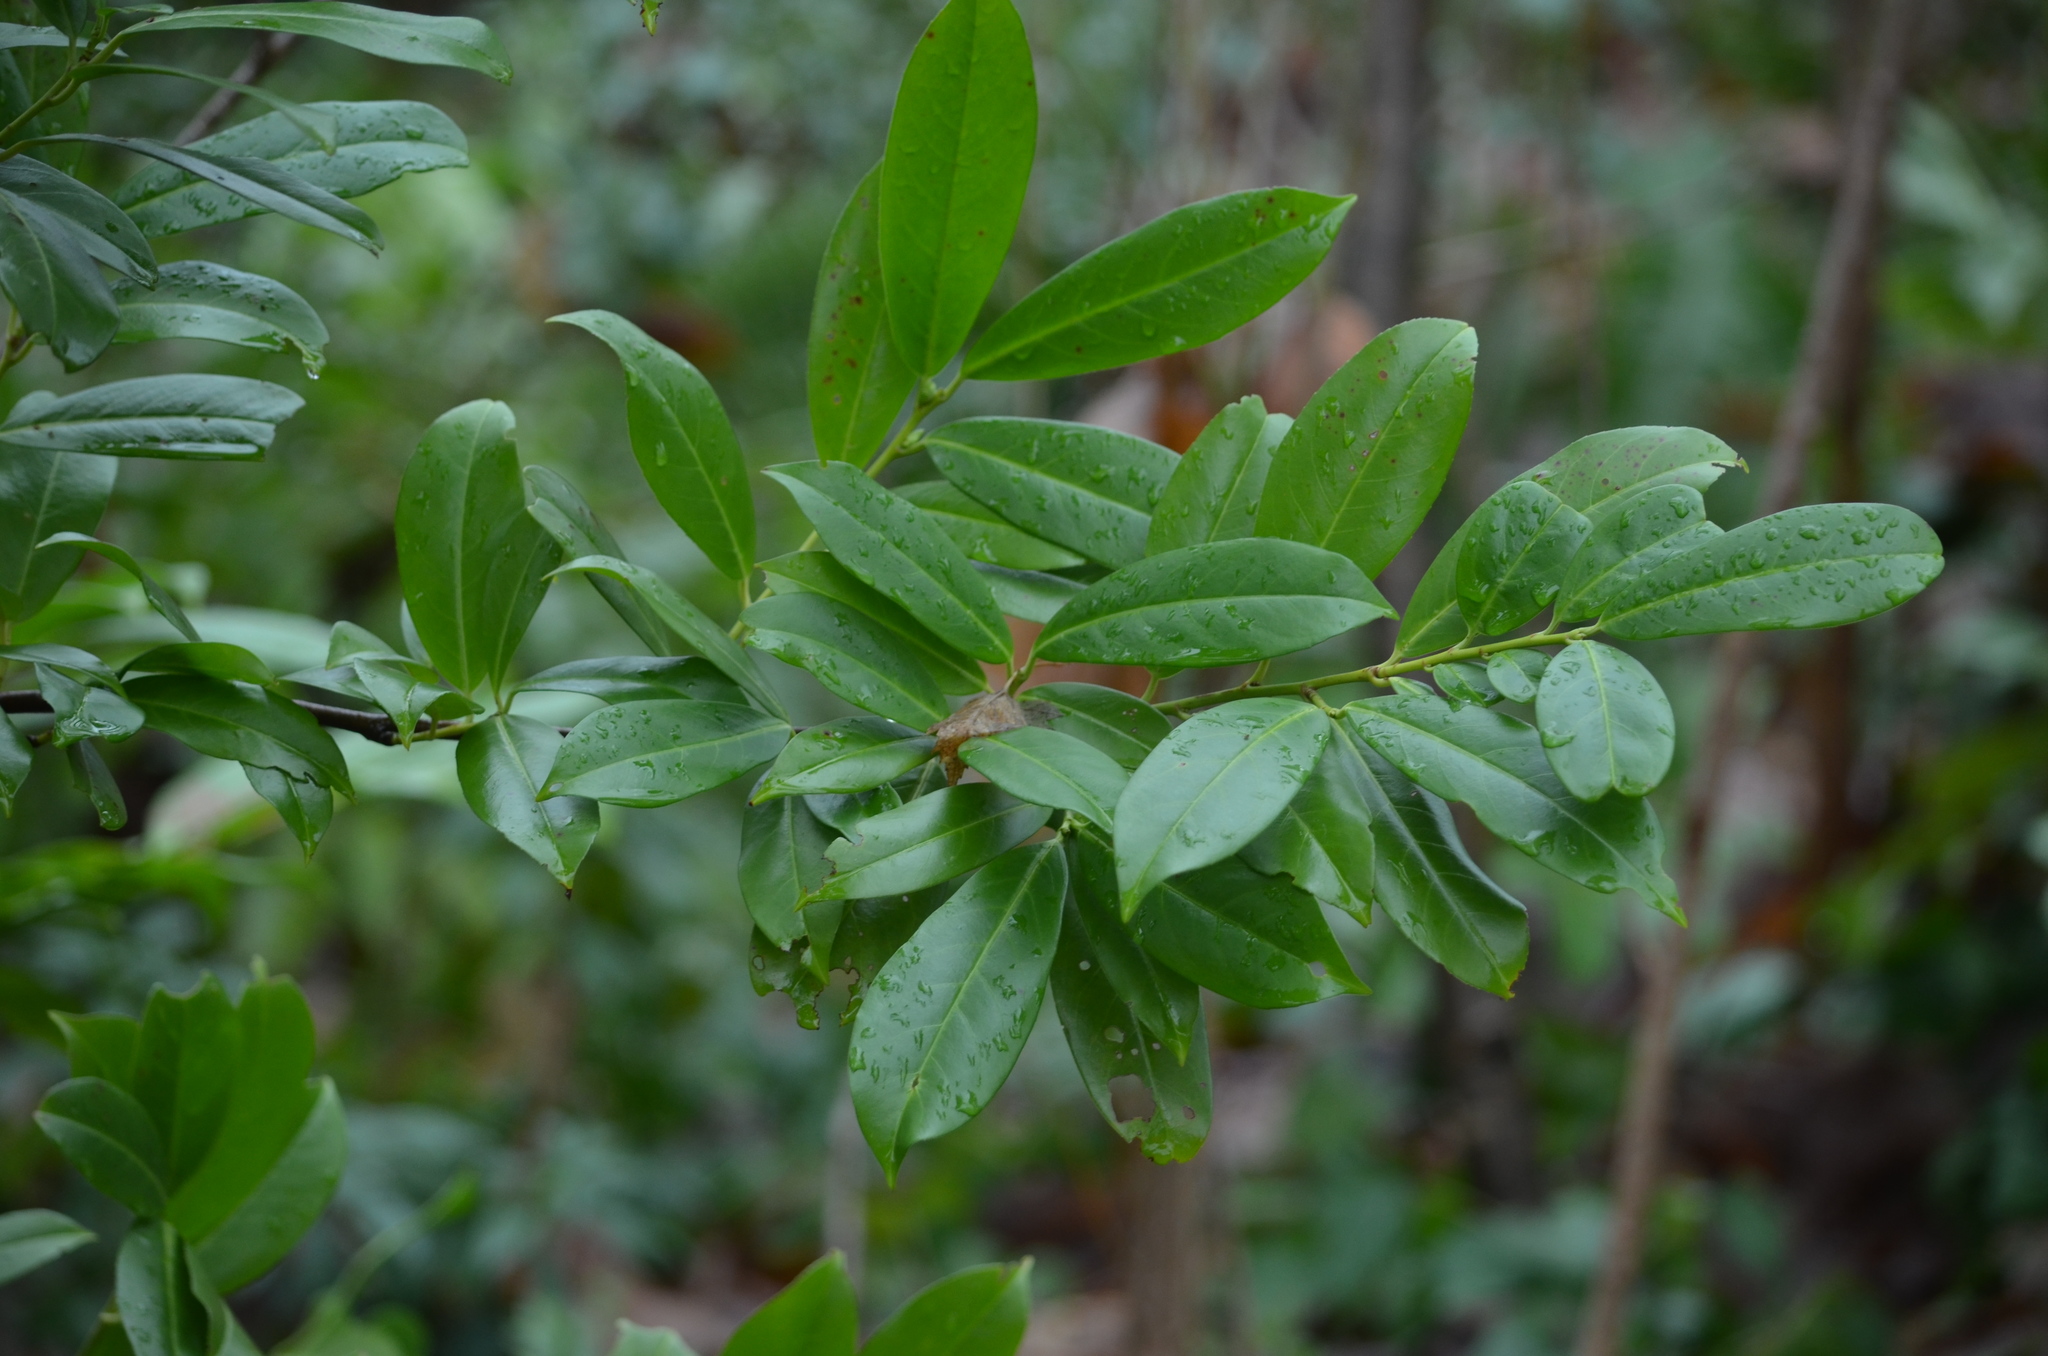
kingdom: Plantae
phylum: Tracheophyta
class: Magnoliopsida
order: Rosales
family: Rosaceae
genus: Prunus
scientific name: Prunus laurocerasus
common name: Cherry laurel
